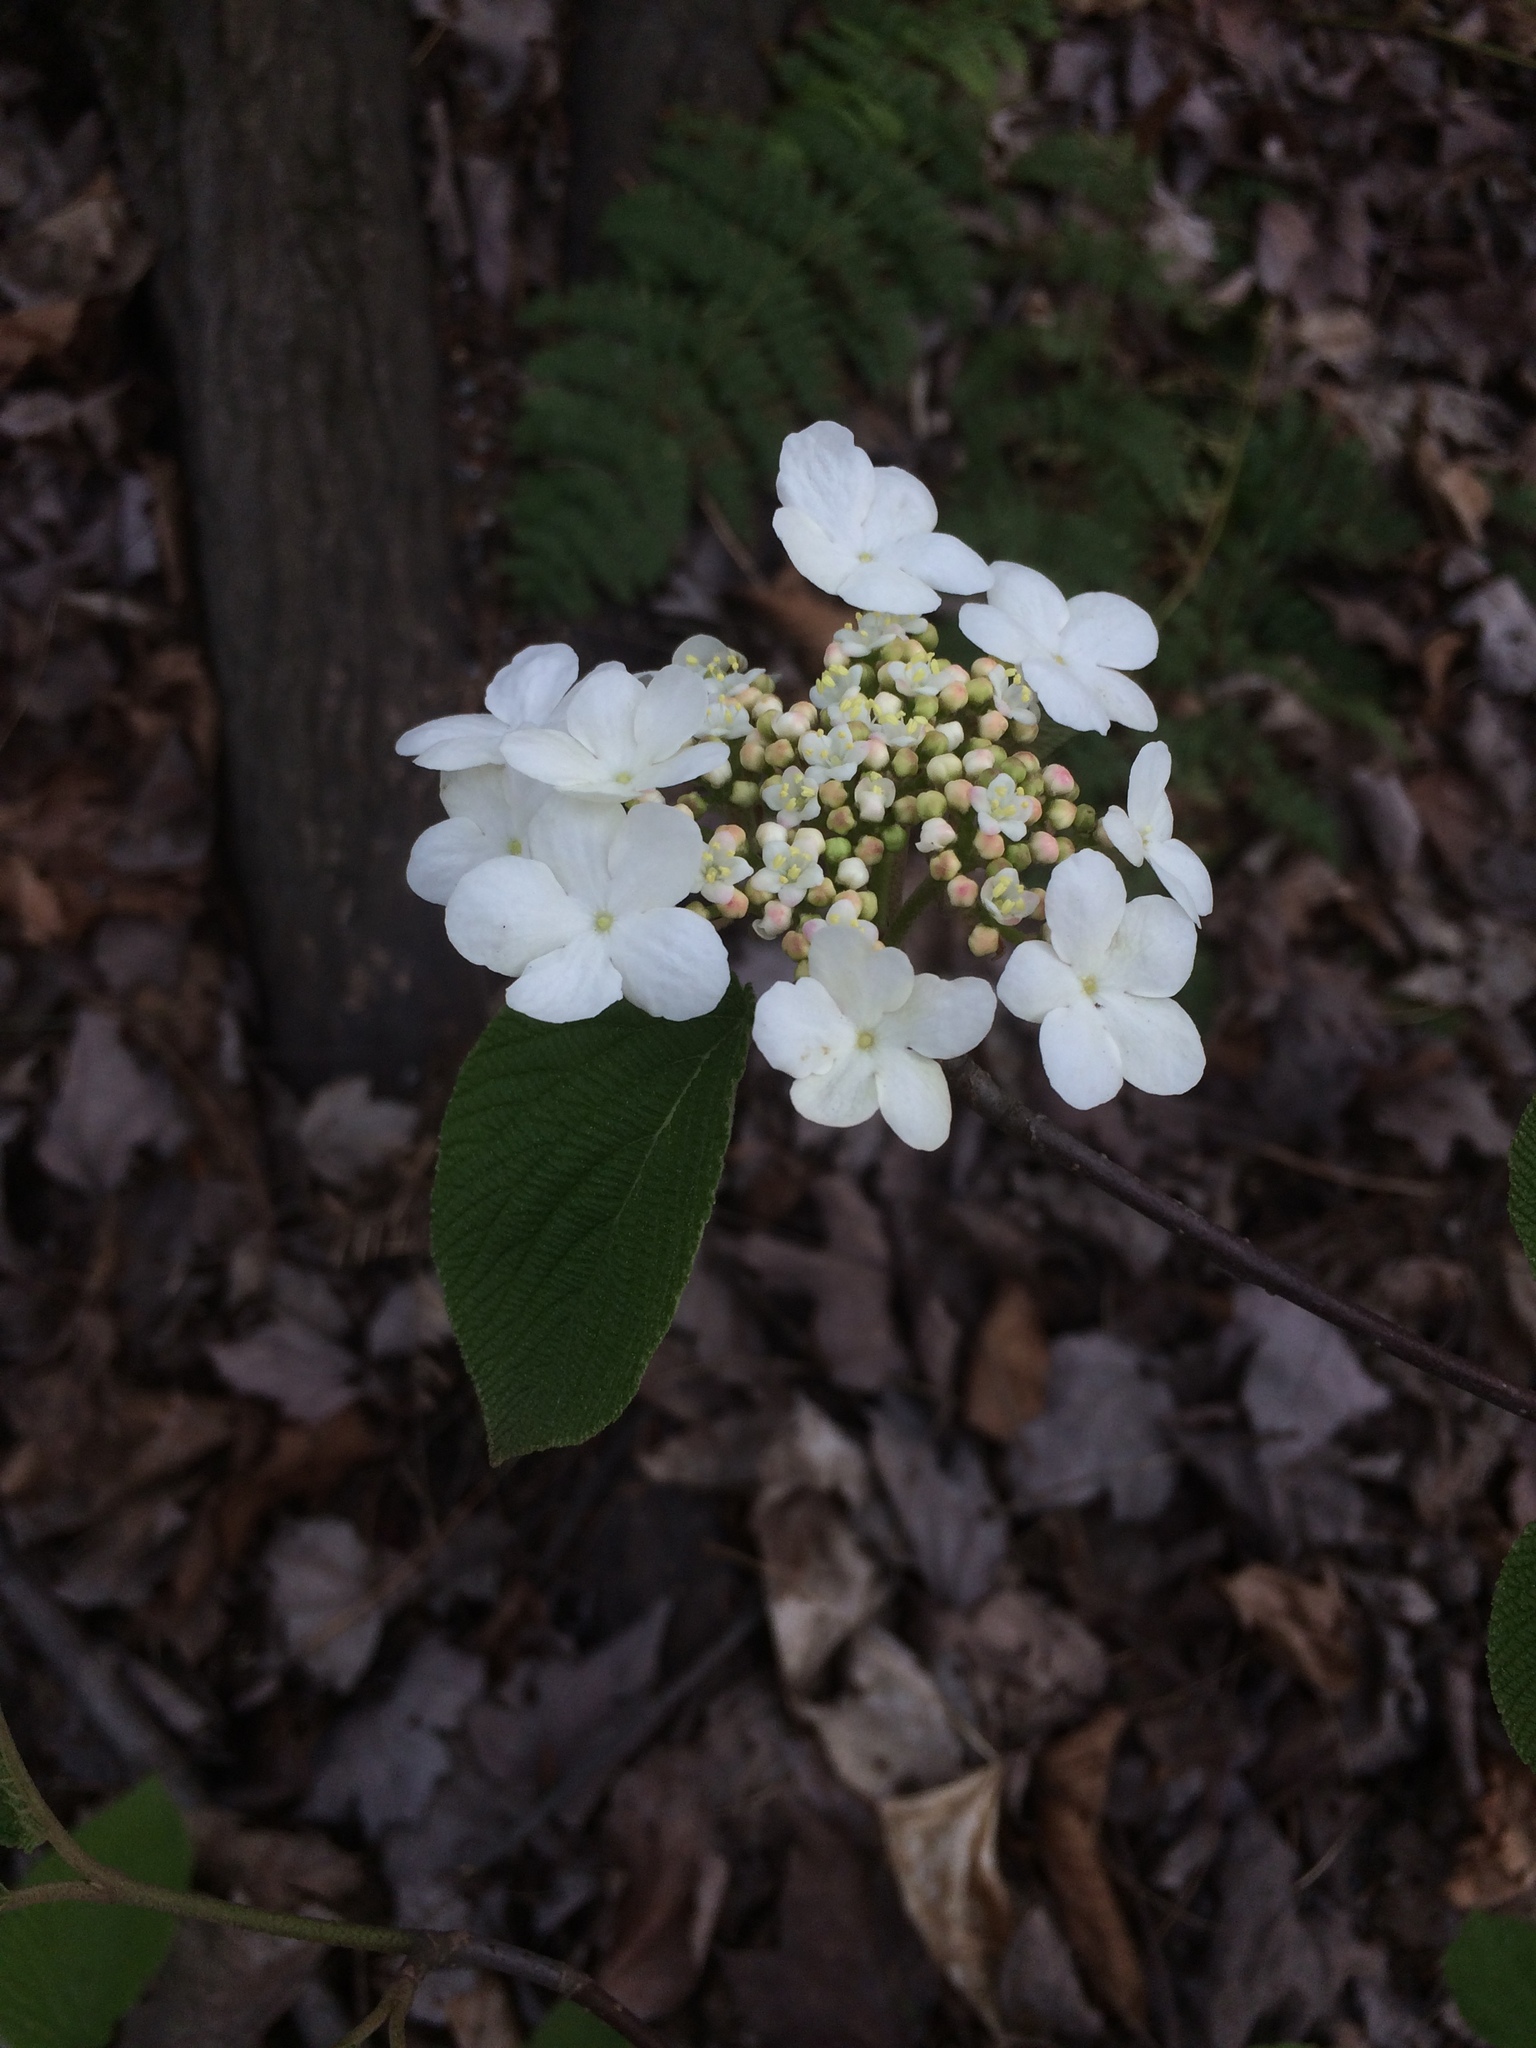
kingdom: Plantae
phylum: Tracheophyta
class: Magnoliopsida
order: Dipsacales
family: Viburnaceae
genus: Viburnum
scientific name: Viburnum lantanoides
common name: Hobblebush
